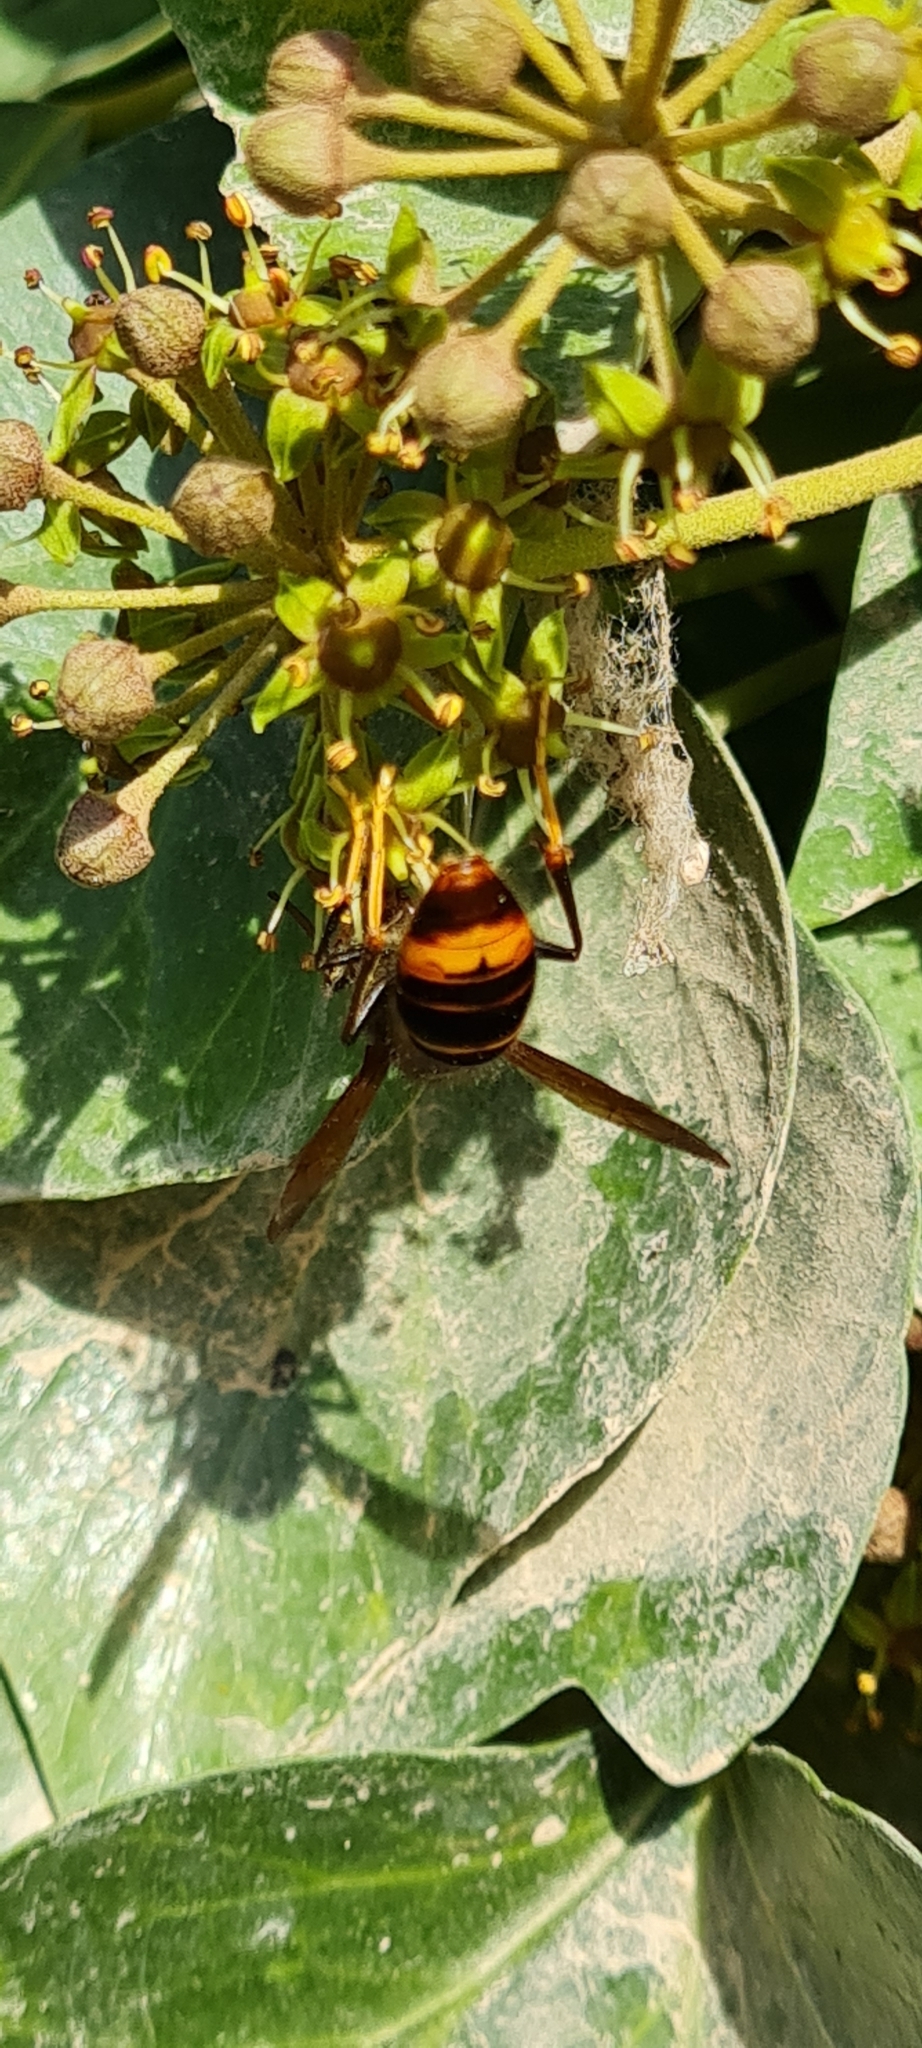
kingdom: Animalia
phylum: Arthropoda
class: Insecta
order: Hymenoptera
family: Vespidae
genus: Vespa
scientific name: Vespa velutina
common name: Asian hornet
